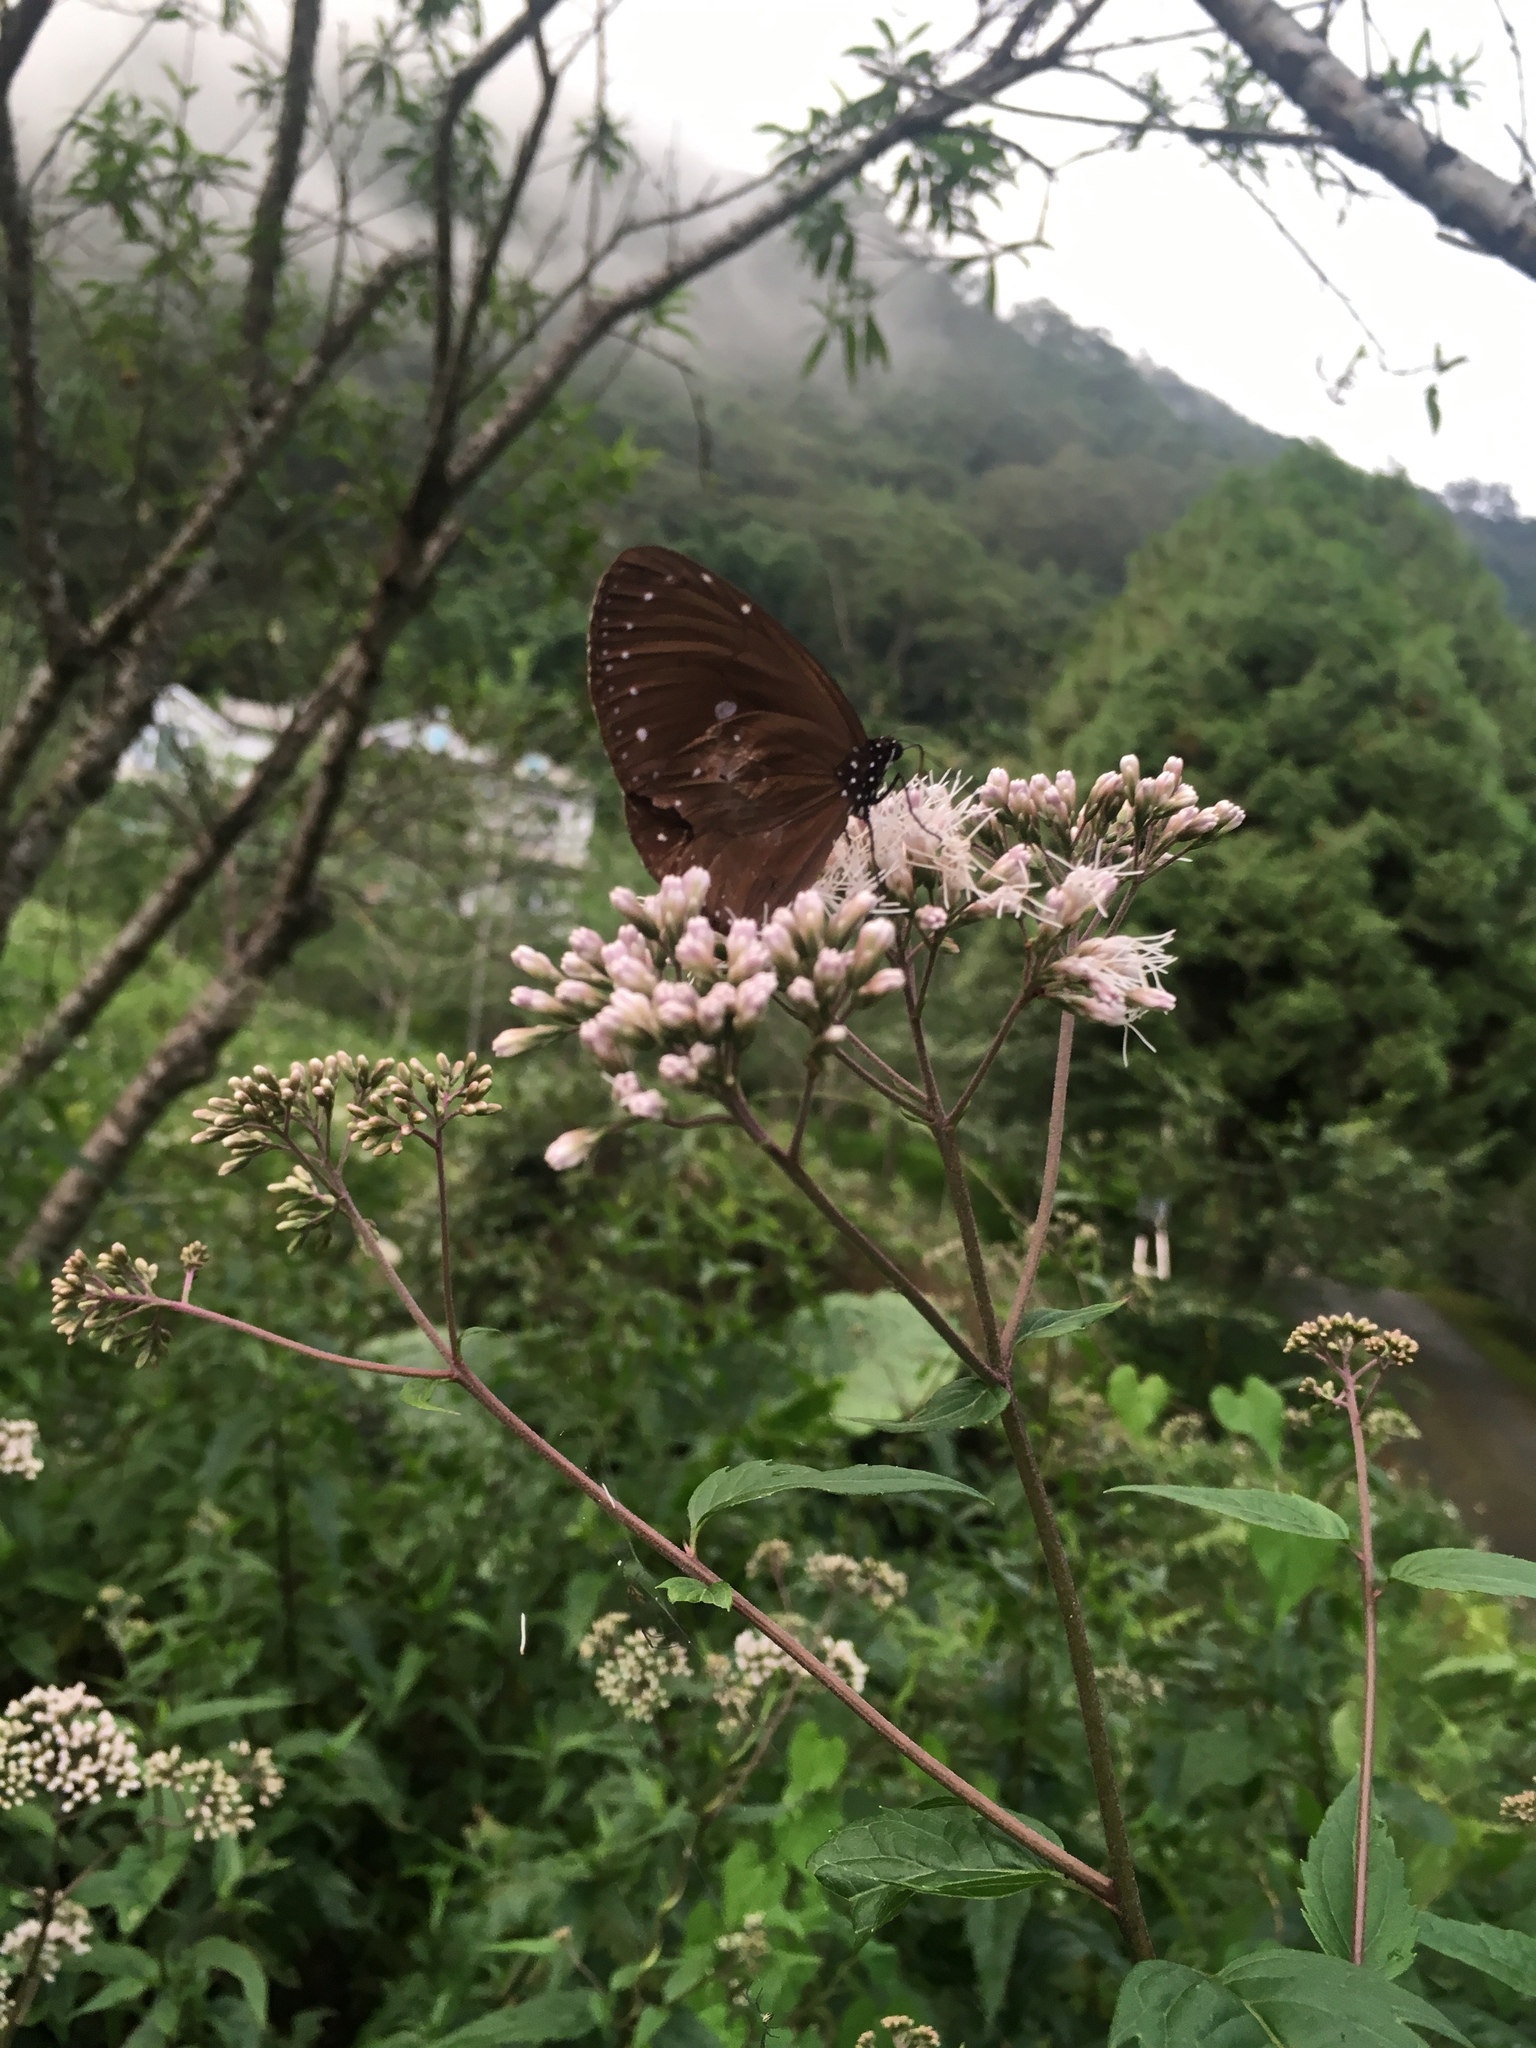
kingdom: Animalia
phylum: Arthropoda
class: Insecta
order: Lepidoptera
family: Nymphalidae
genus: Euploea
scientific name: Euploea tulliolus
